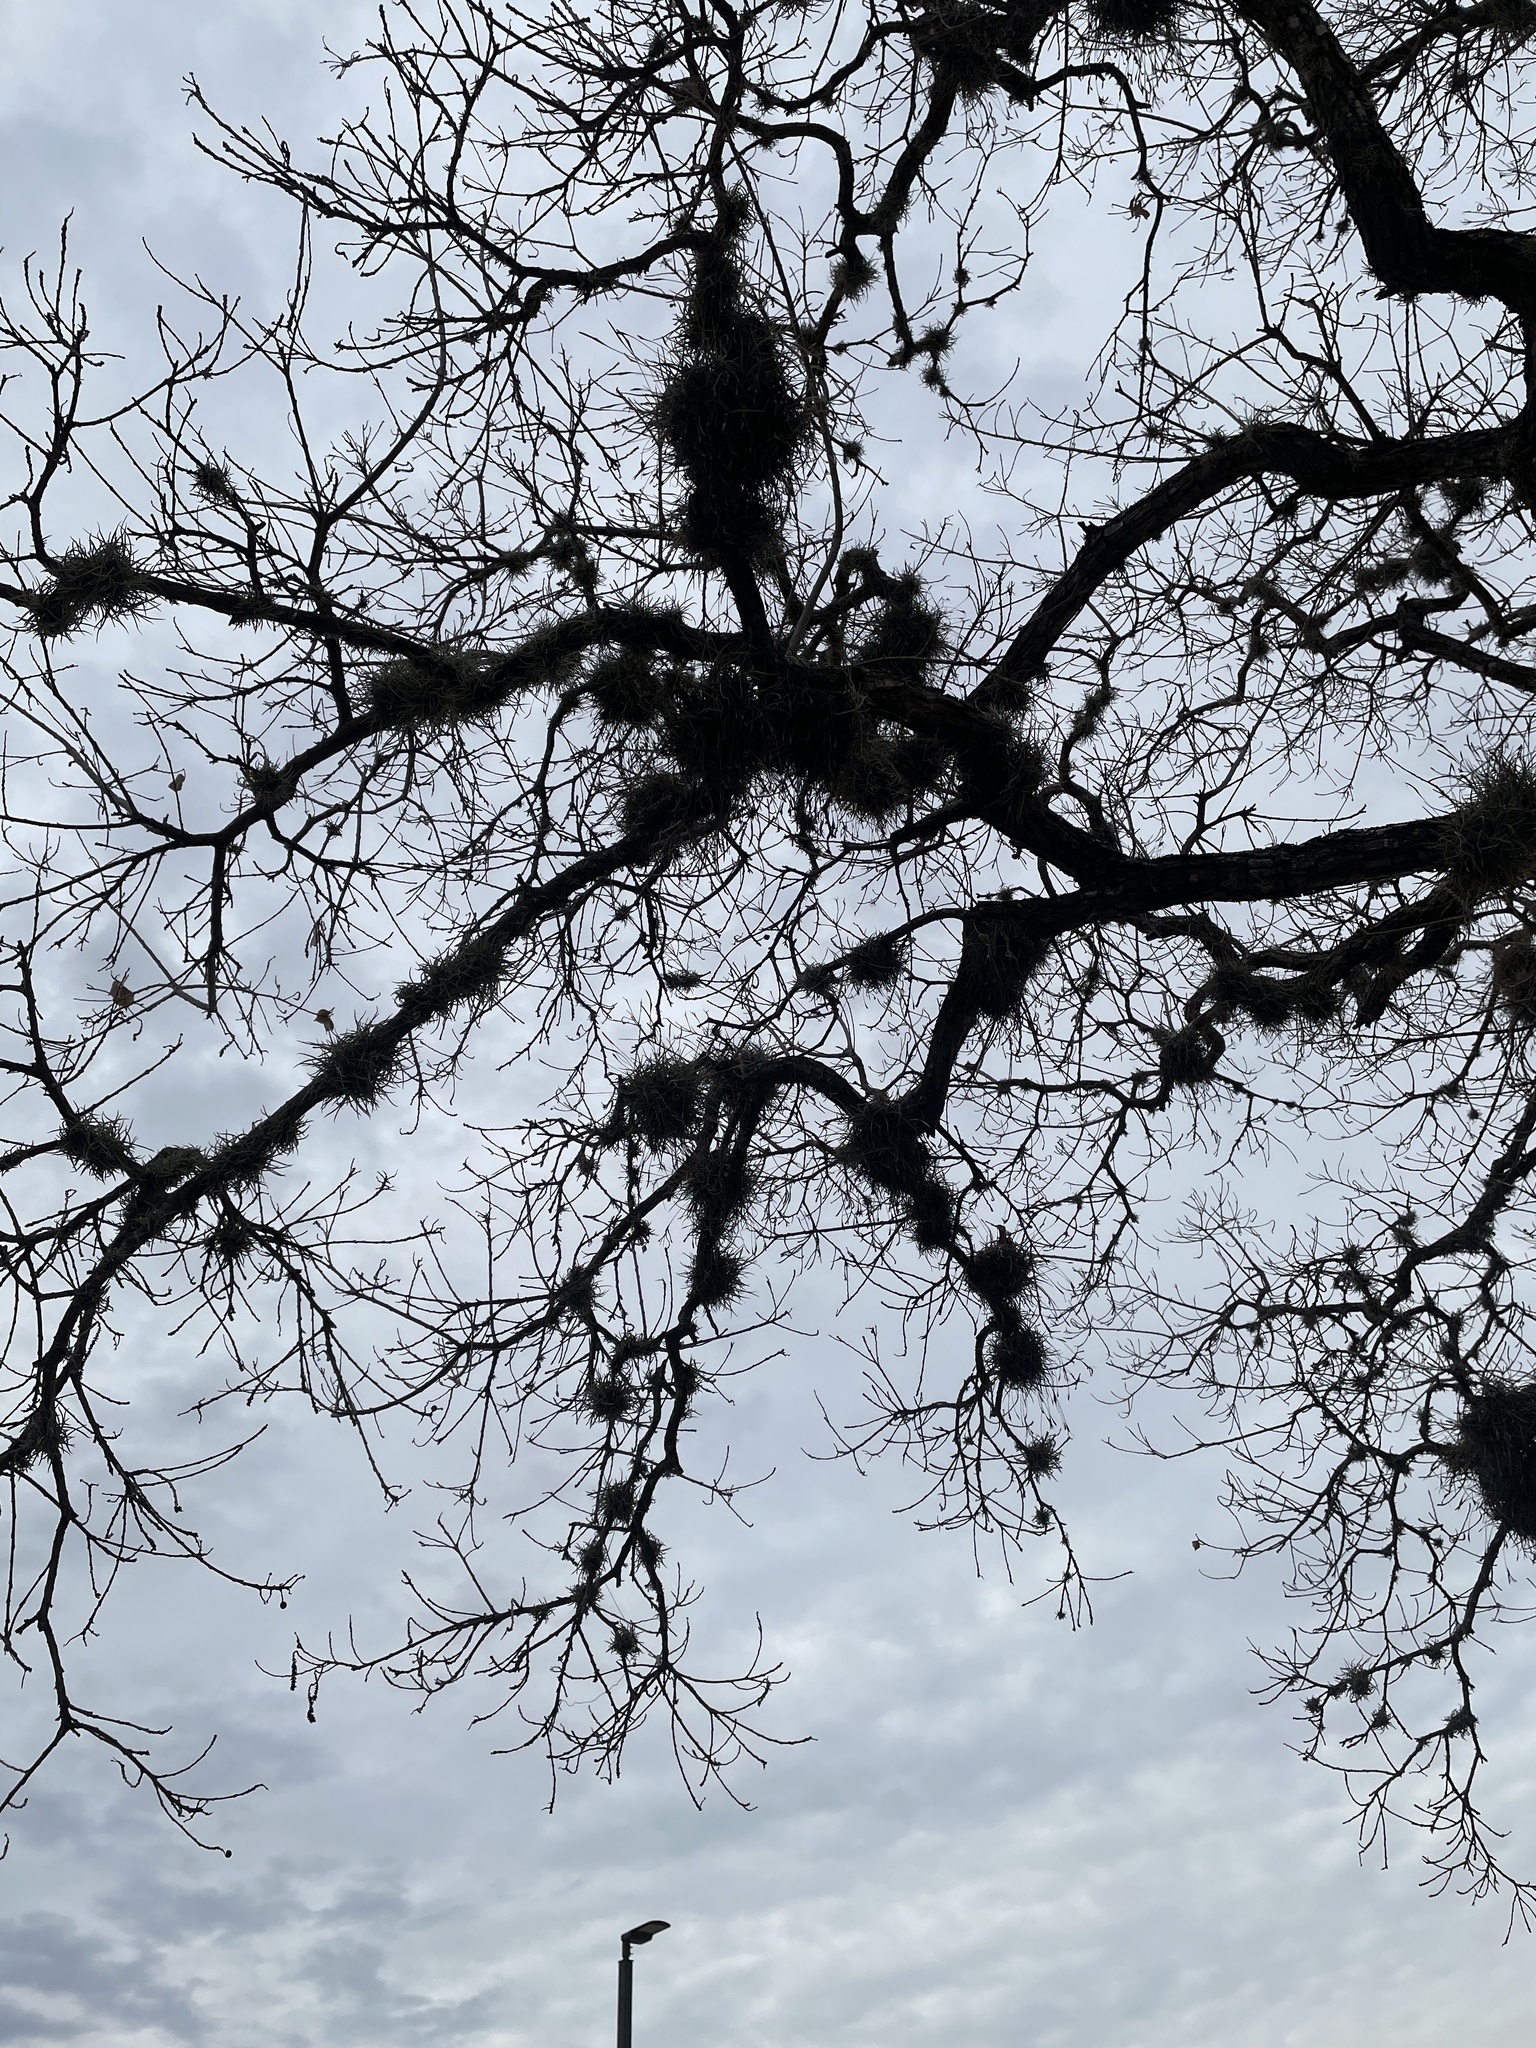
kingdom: Plantae
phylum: Tracheophyta
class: Liliopsida
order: Poales
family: Bromeliaceae
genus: Tillandsia
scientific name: Tillandsia recurvata
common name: Small ballmoss
